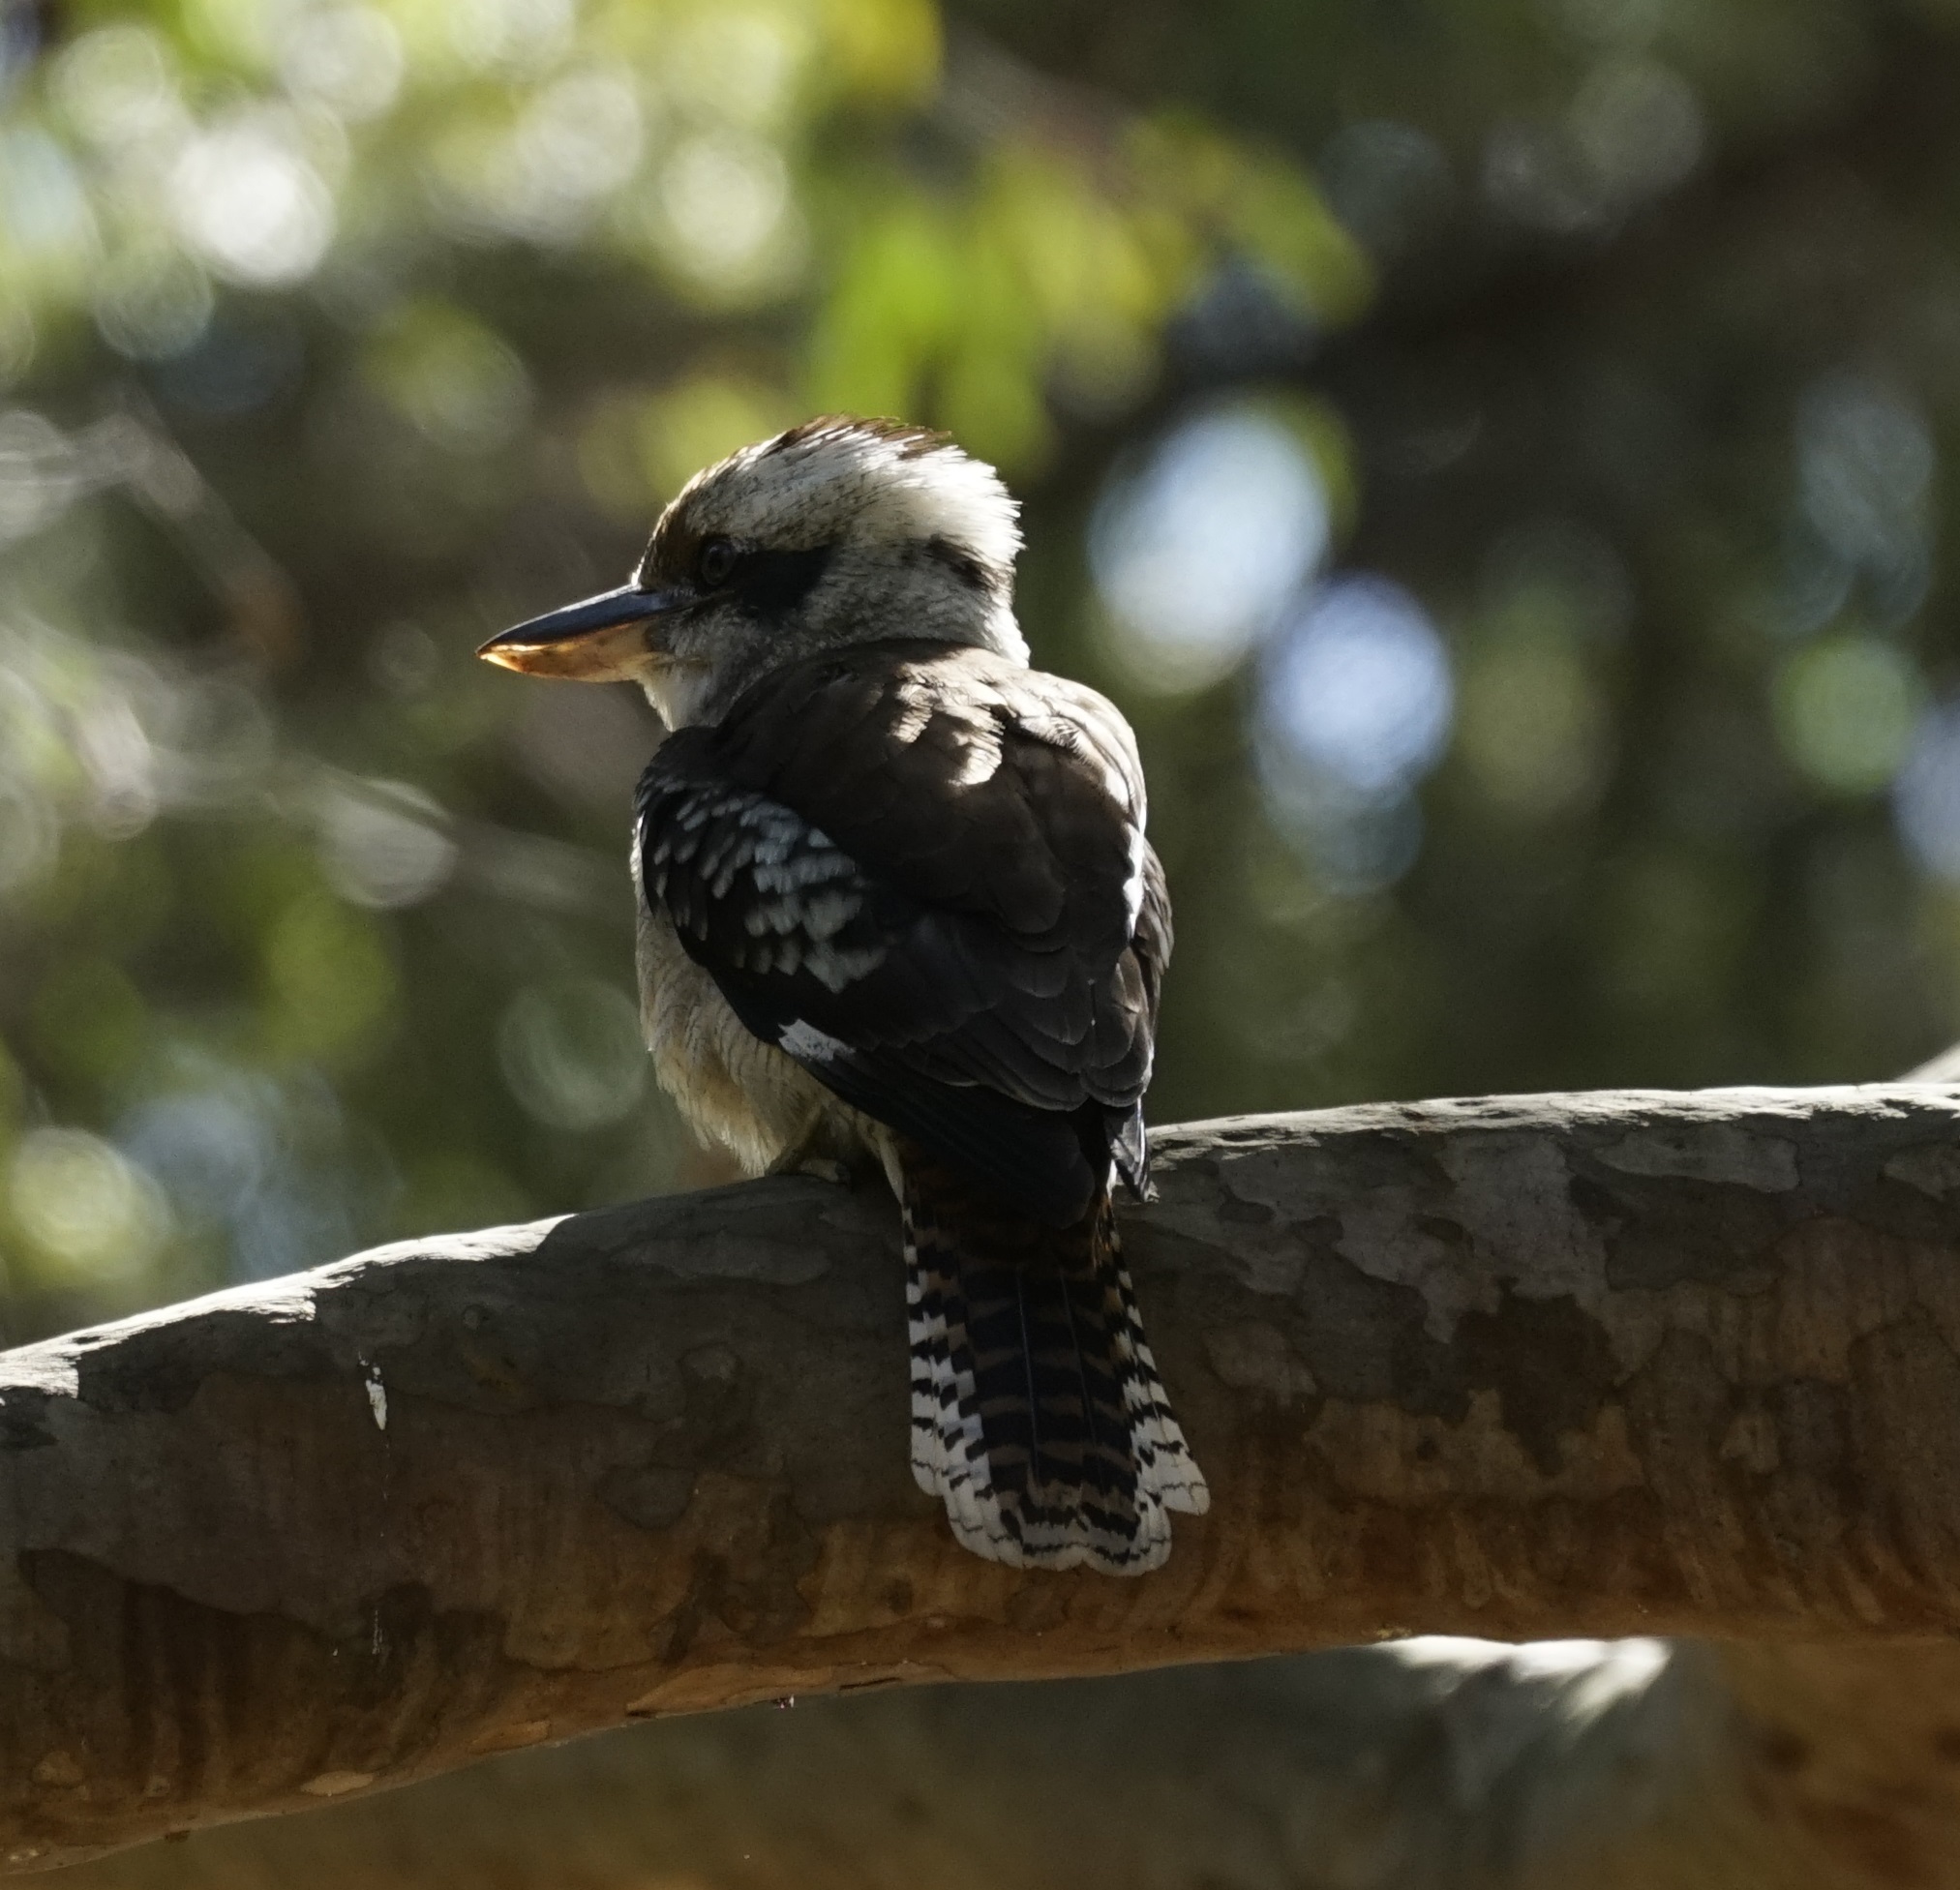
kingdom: Animalia
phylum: Chordata
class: Aves
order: Coraciiformes
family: Alcedinidae
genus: Dacelo
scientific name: Dacelo novaeguineae
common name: Laughing kookaburra
